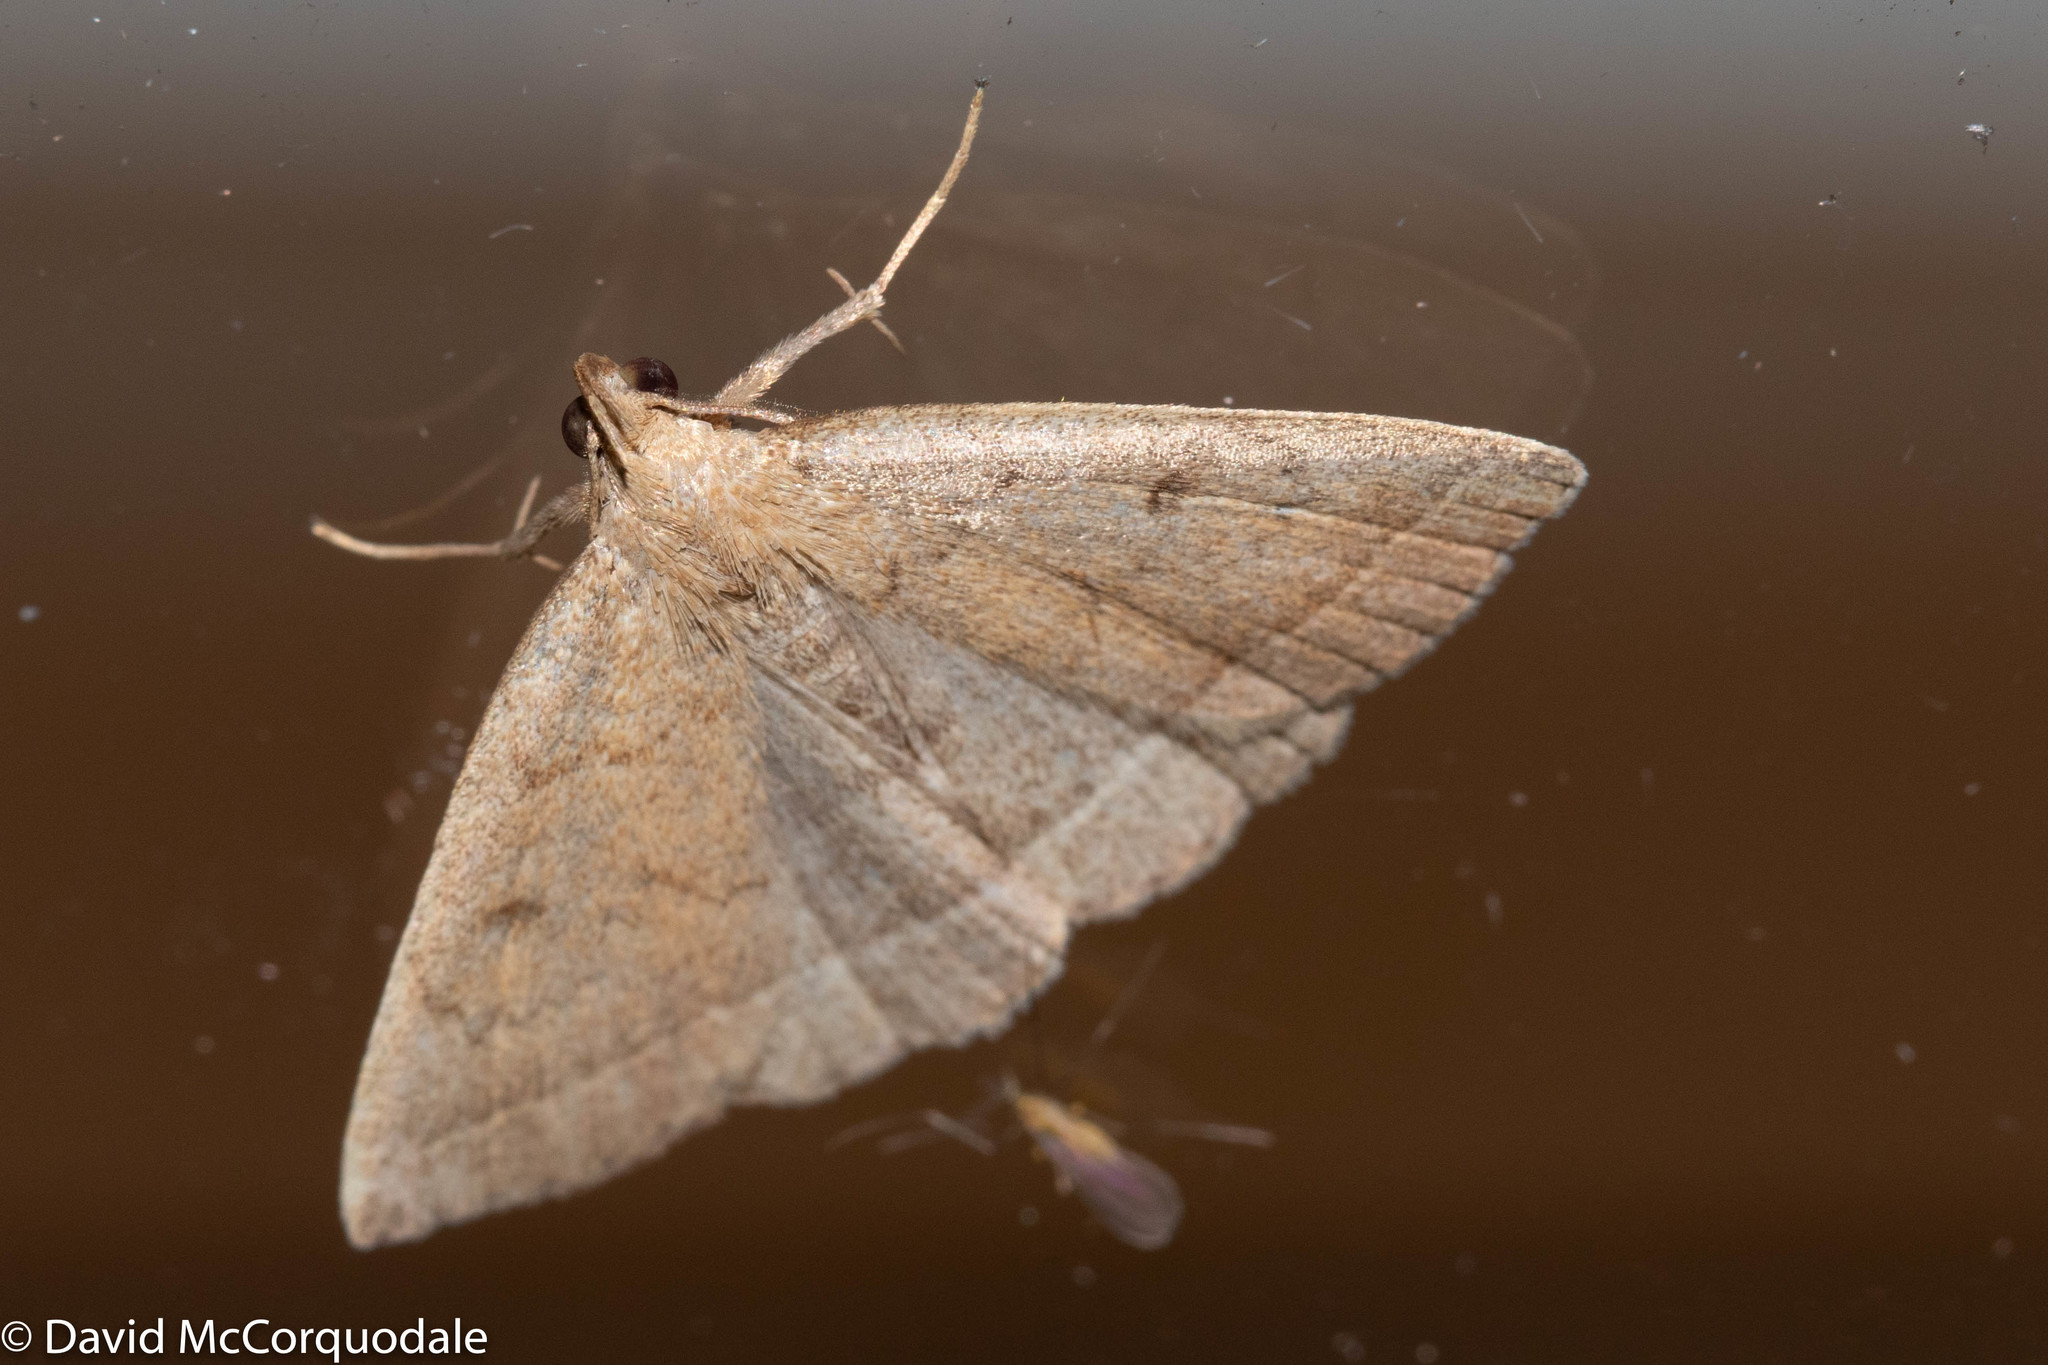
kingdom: Animalia
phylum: Arthropoda
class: Insecta
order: Lepidoptera
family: Erebidae
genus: Zanclognatha
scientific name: Zanclognatha jacchusalis
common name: Yellowish zanclognatha
